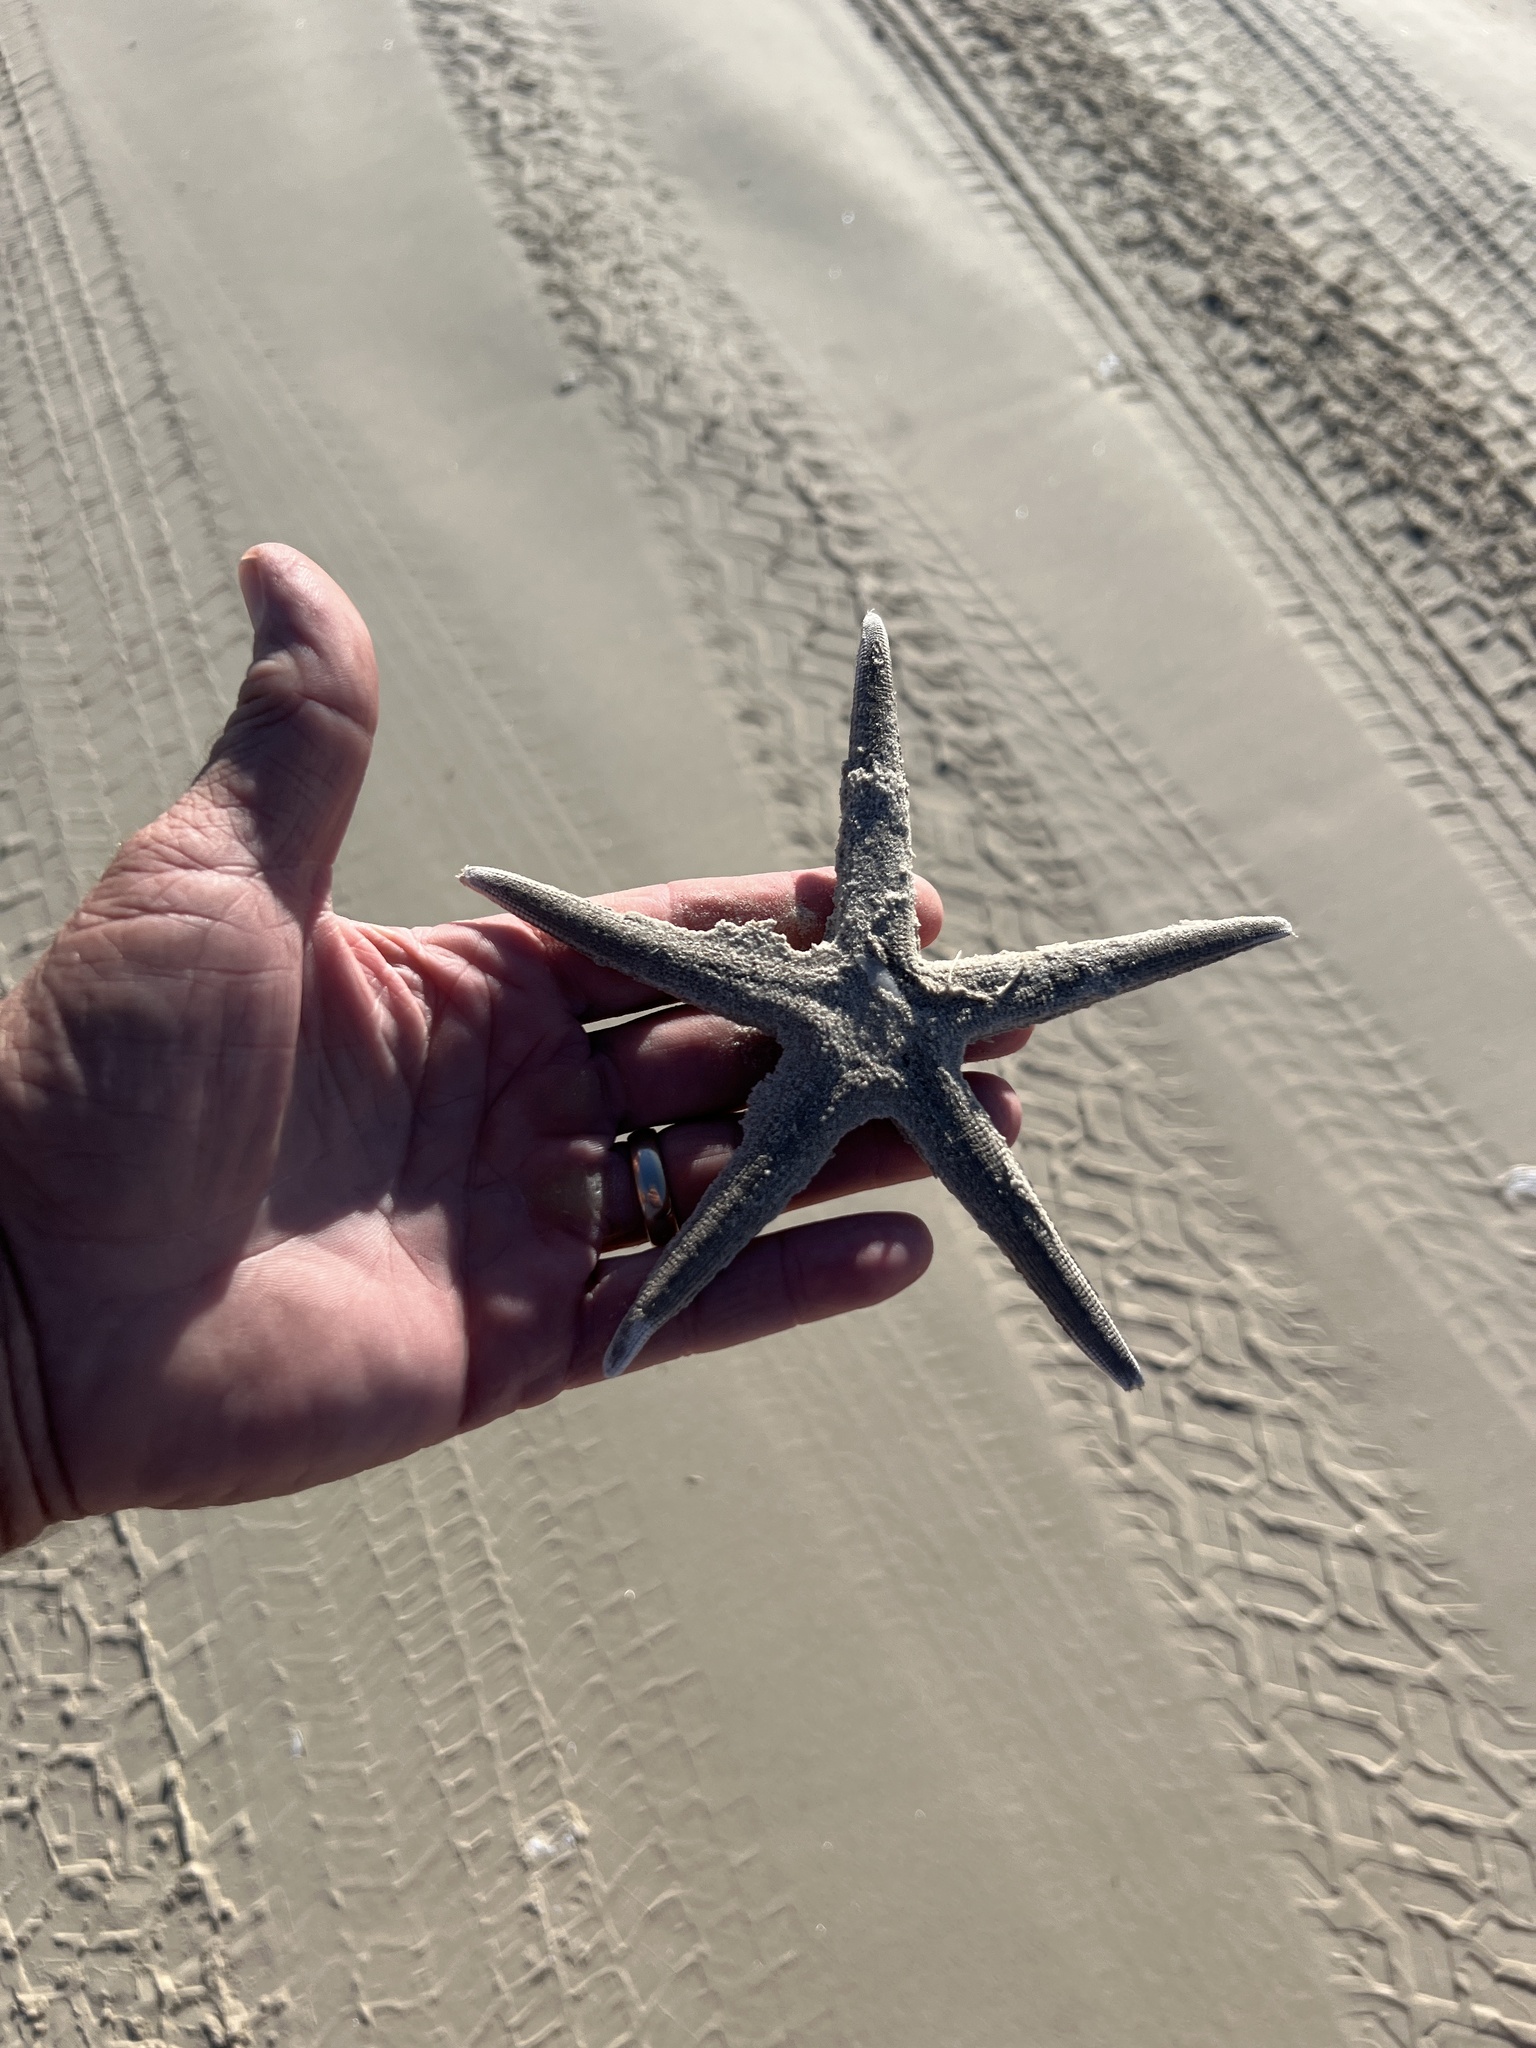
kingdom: Animalia
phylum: Echinodermata
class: Asteroidea
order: Paxillosida
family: Luidiidae
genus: Luidia
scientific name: Luidia clathrata
